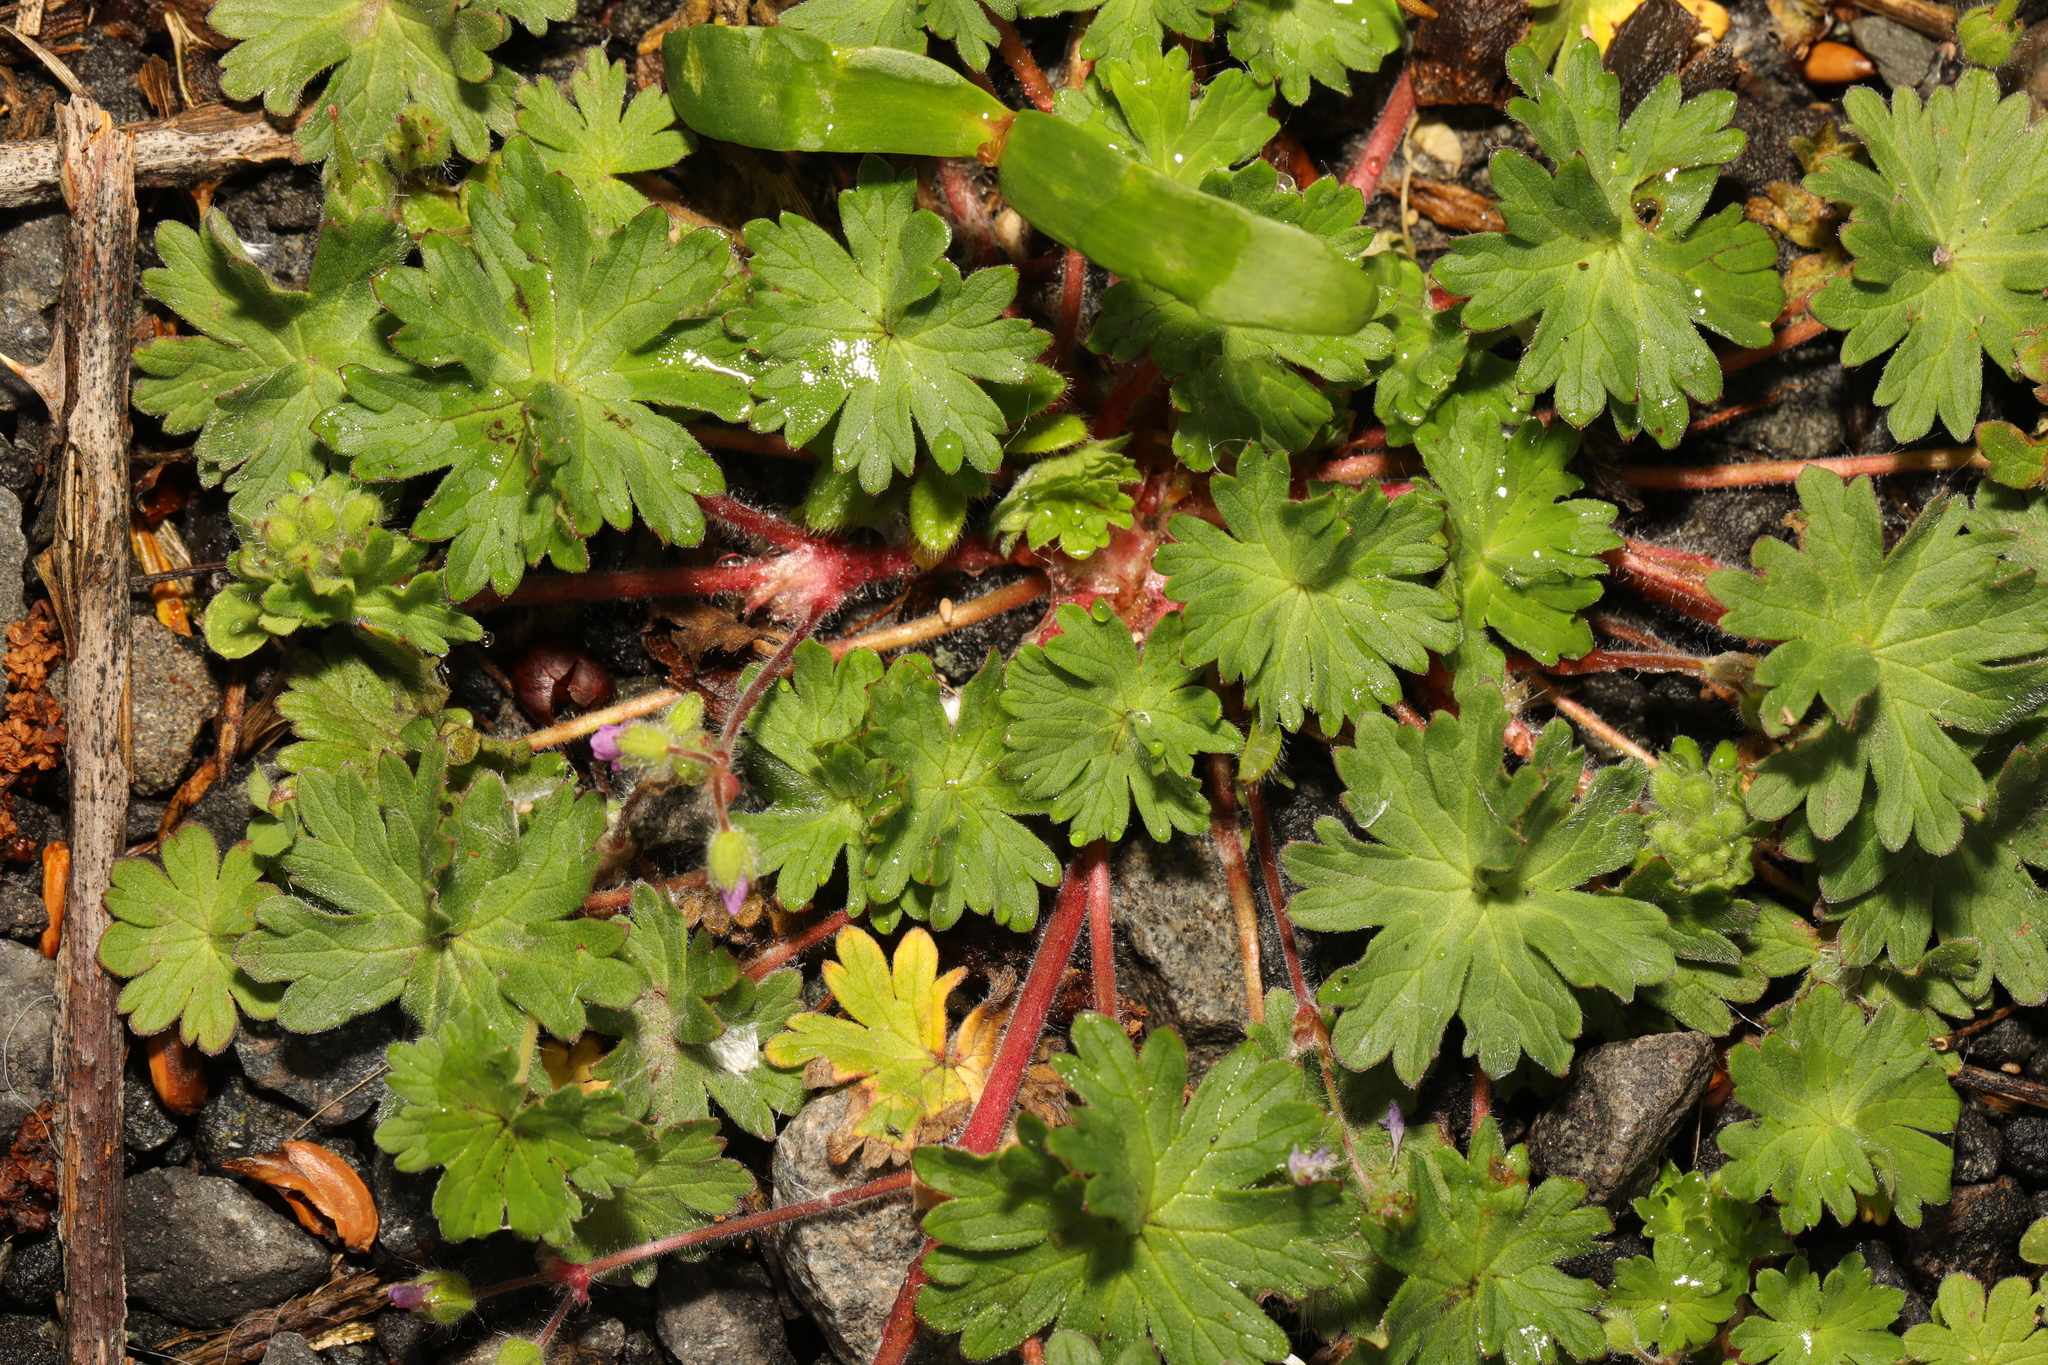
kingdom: Plantae
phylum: Tracheophyta
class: Magnoliopsida
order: Geraniales
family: Geraniaceae
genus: Geranium
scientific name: Geranium molle
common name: Dove's-foot crane's-bill
